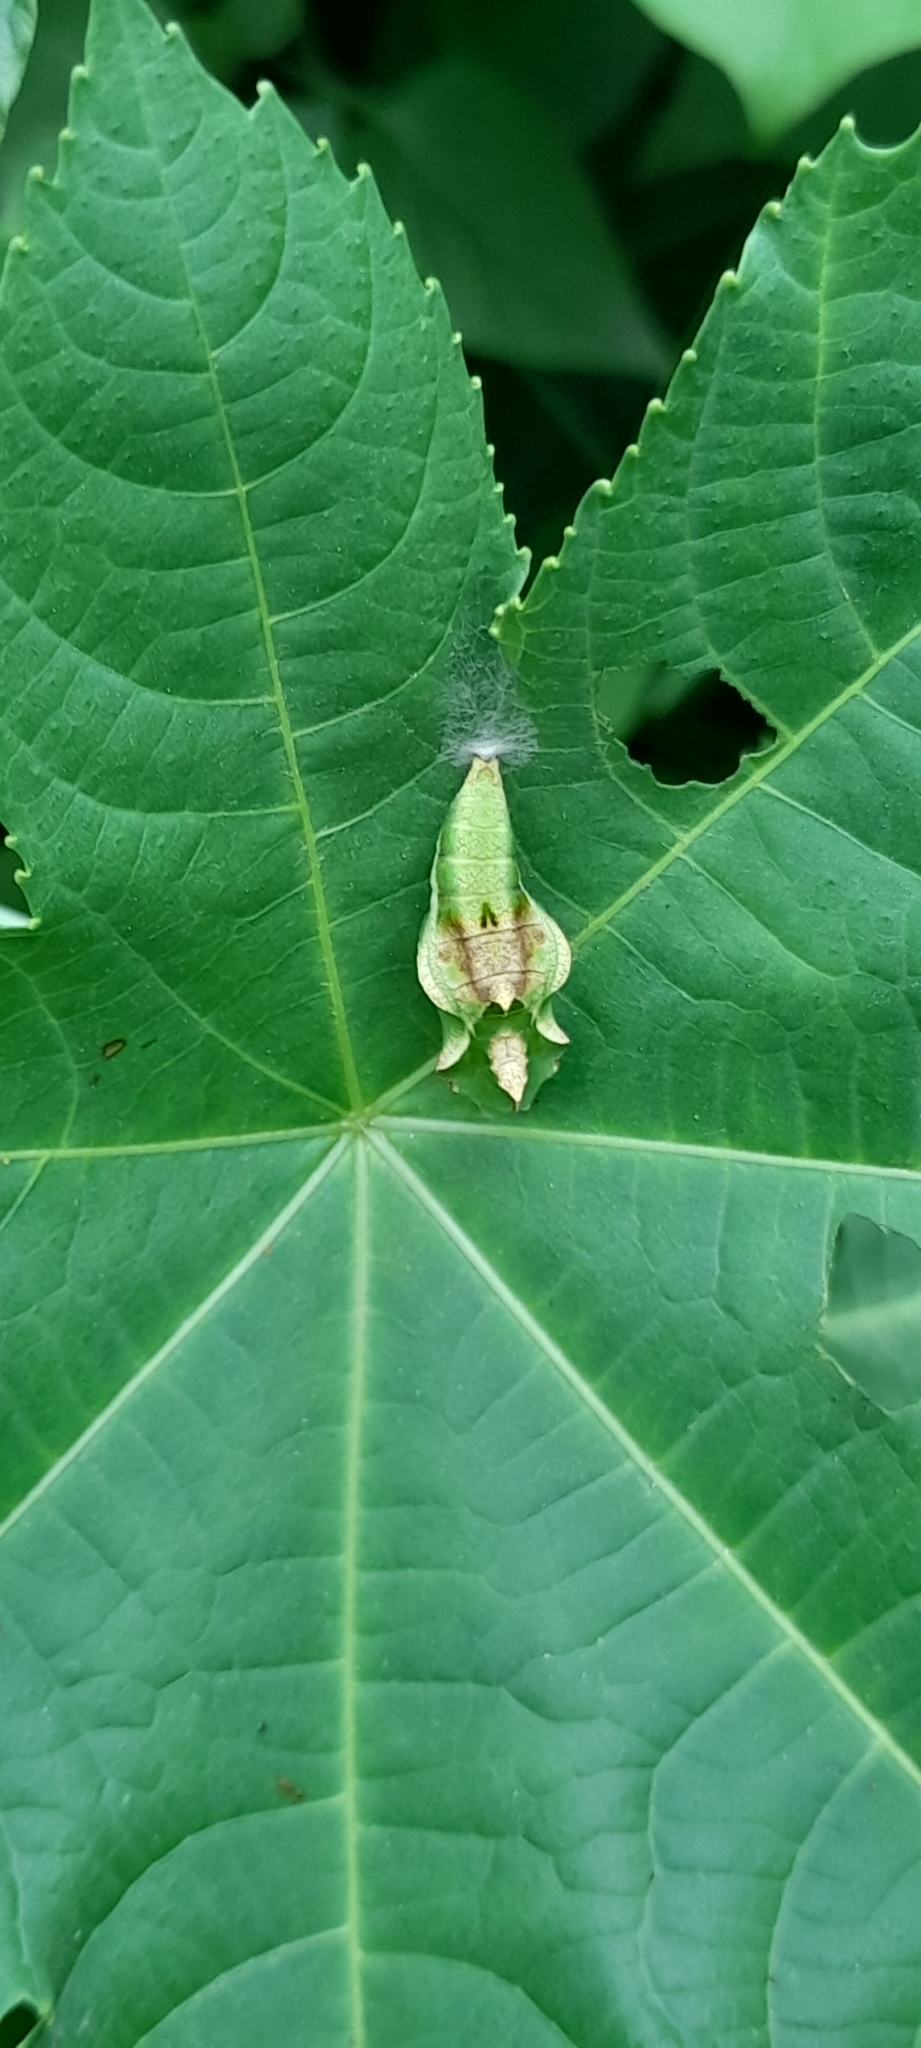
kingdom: Animalia
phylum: Arthropoda
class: Insecta
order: Lepidoptera
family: Nymphalidae
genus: Ariadne
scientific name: Ariadne merione
